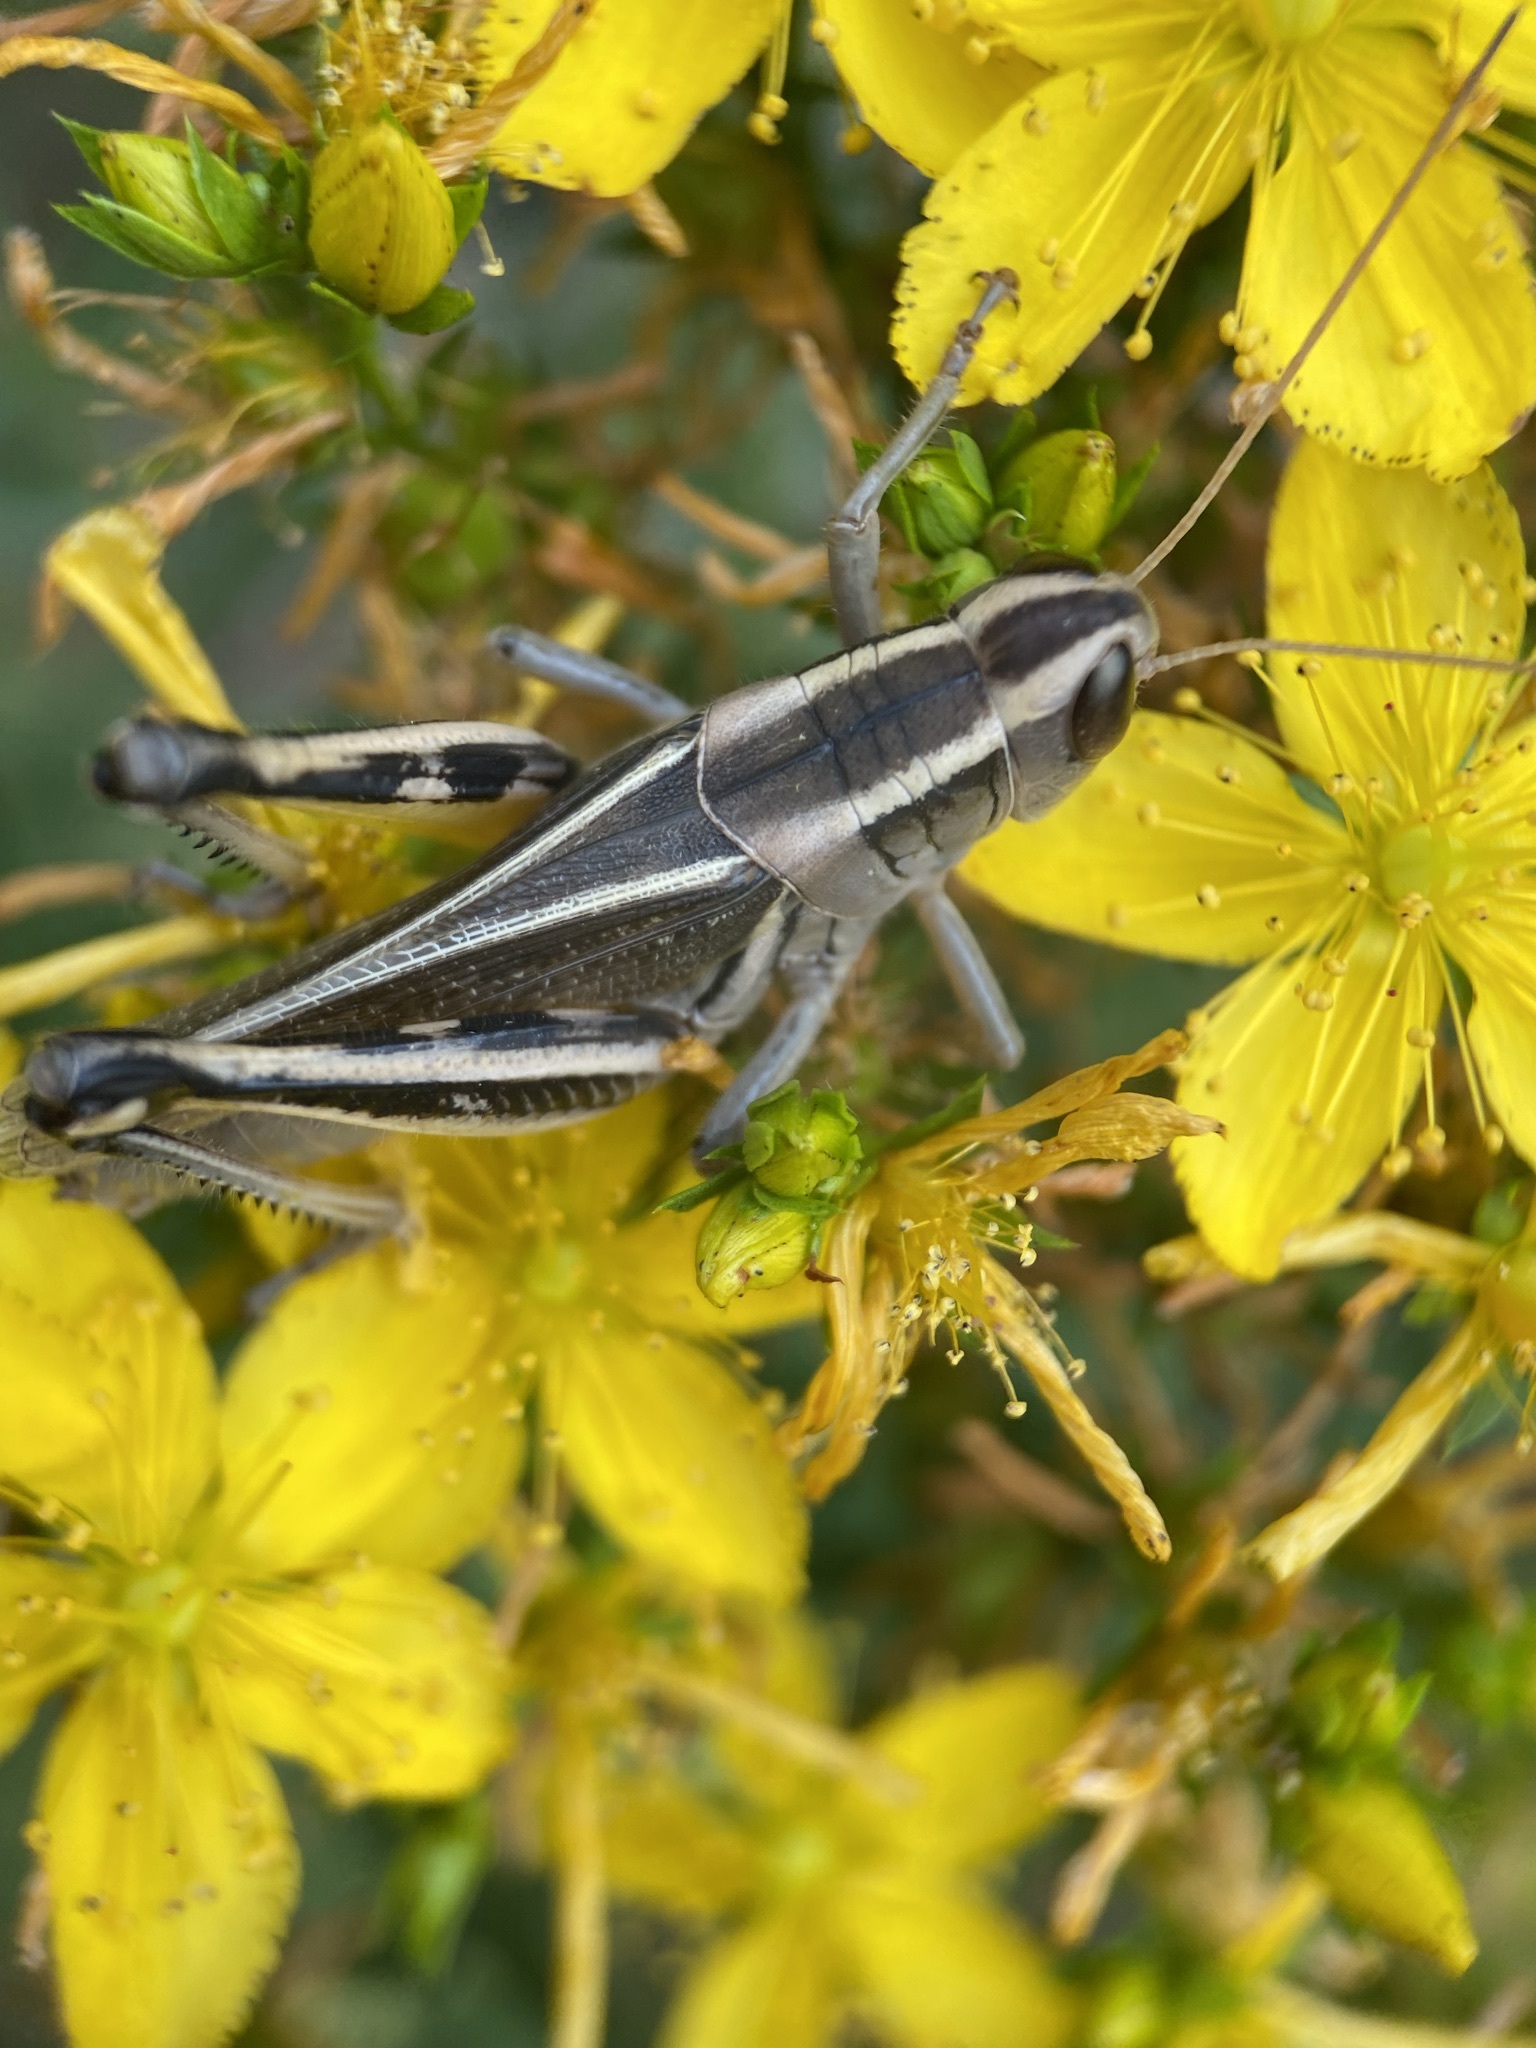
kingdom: Animalia
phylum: Arthropoda
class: Insecta
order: Orthoptera
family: Acrididae
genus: Melanoplus
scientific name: Melanoplus bivittatus
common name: Two-striped grasshopper
